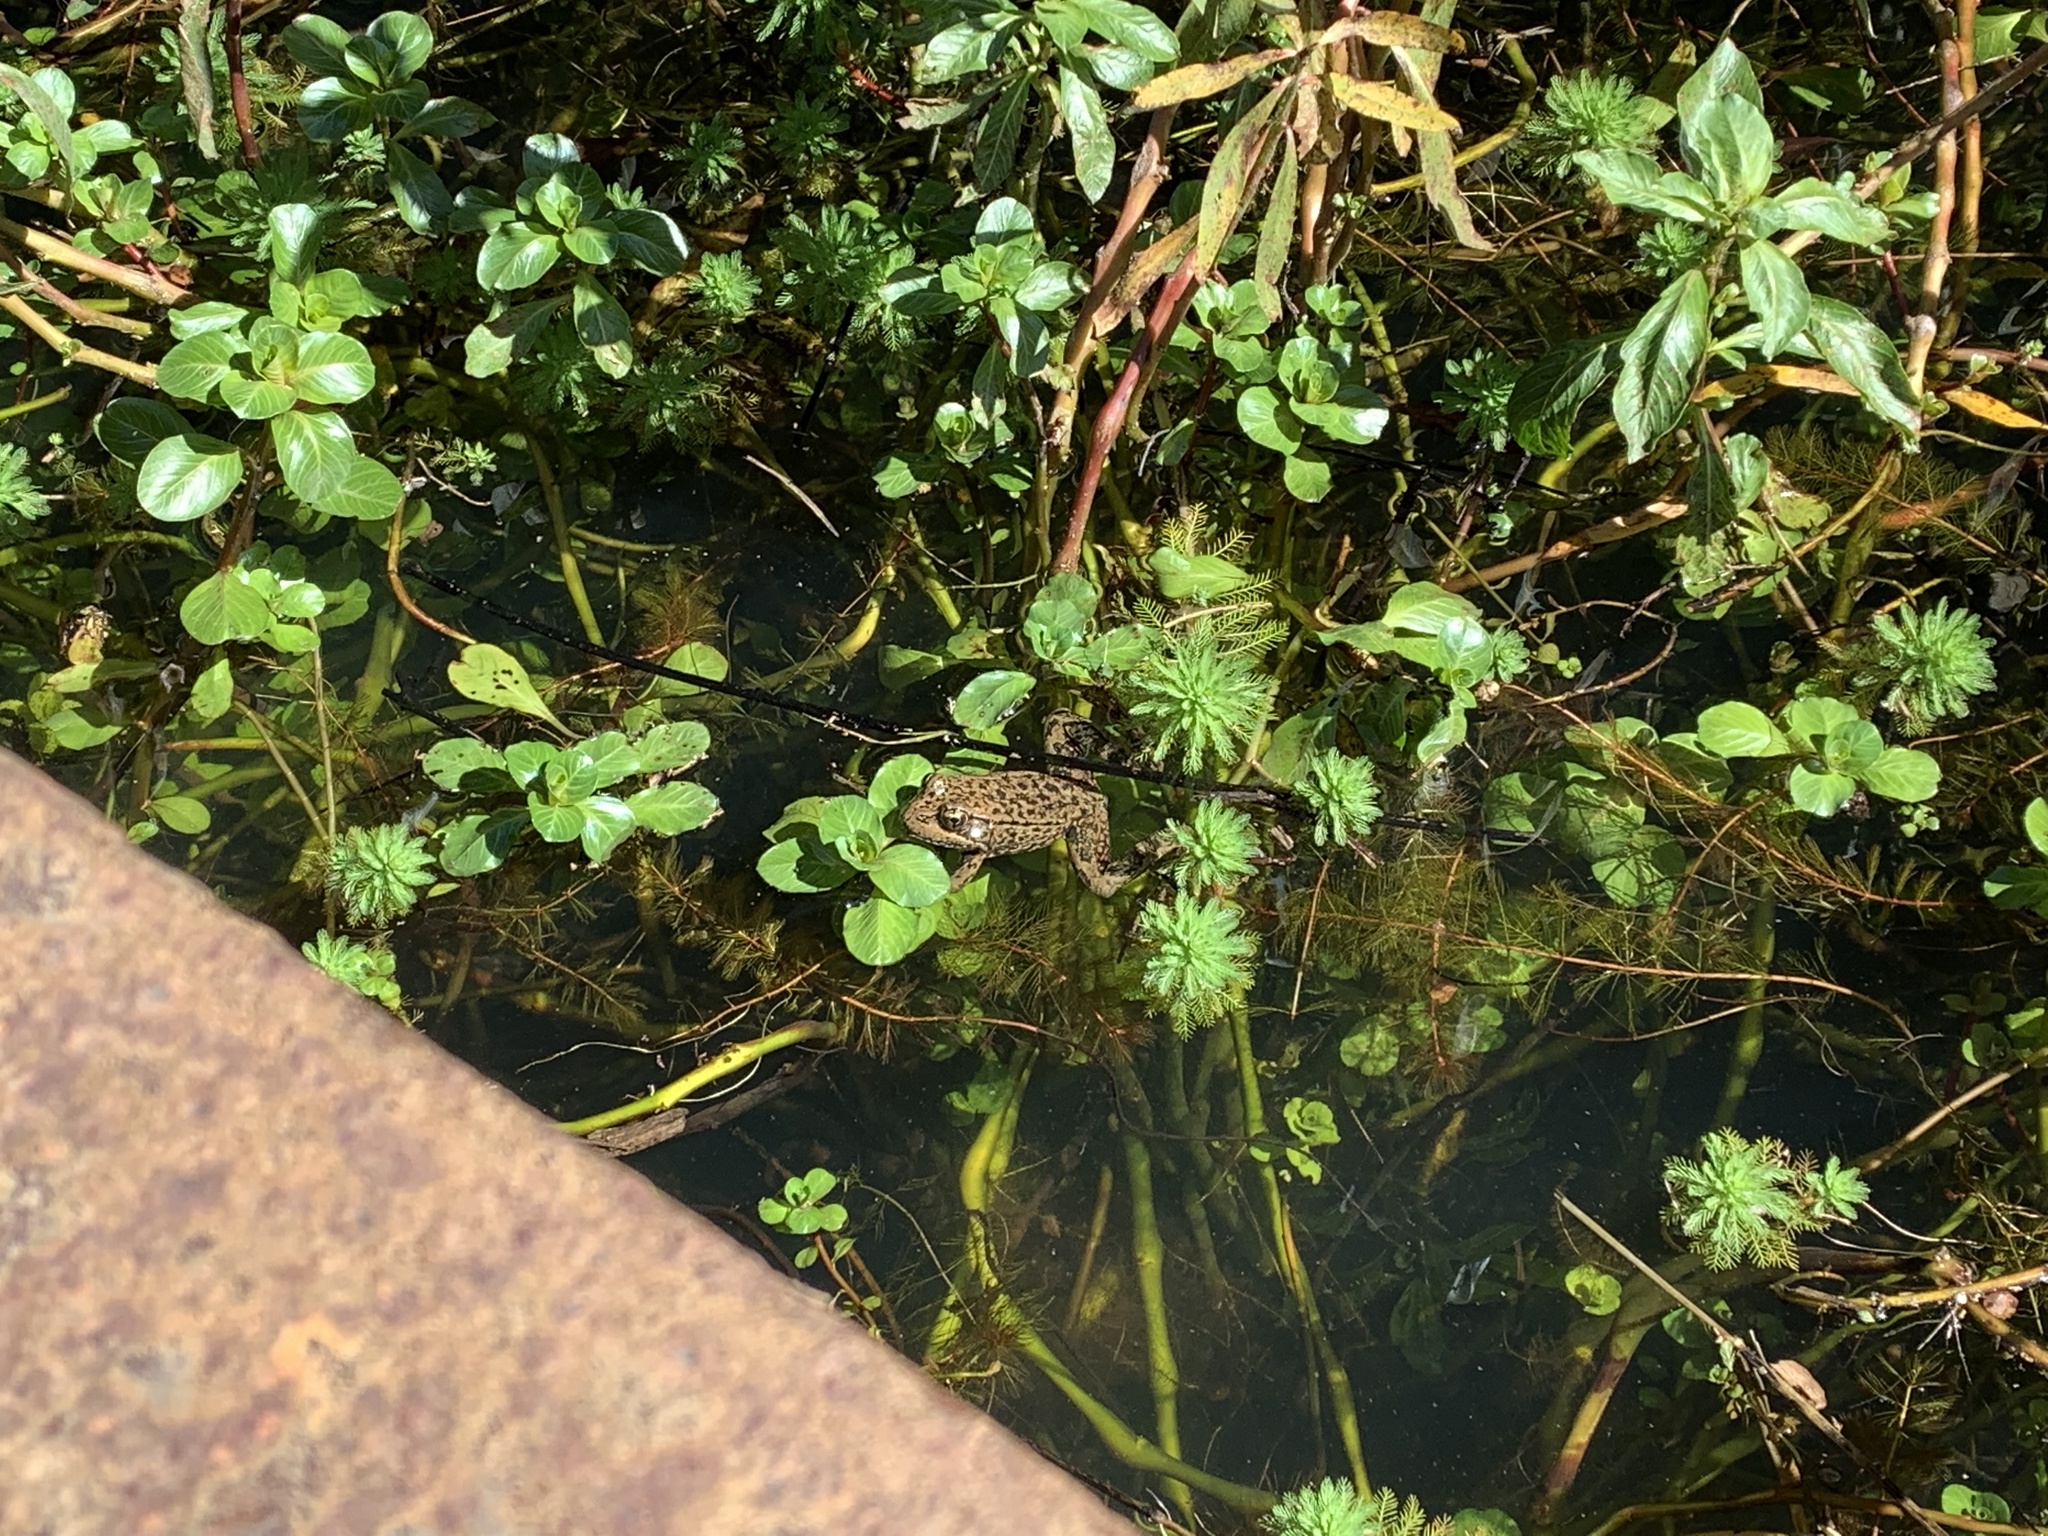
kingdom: Animalia
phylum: Chordata
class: Amphibia
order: Anura
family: Ranidae
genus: Rana
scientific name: Rana draytonii
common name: California red-legged frog
